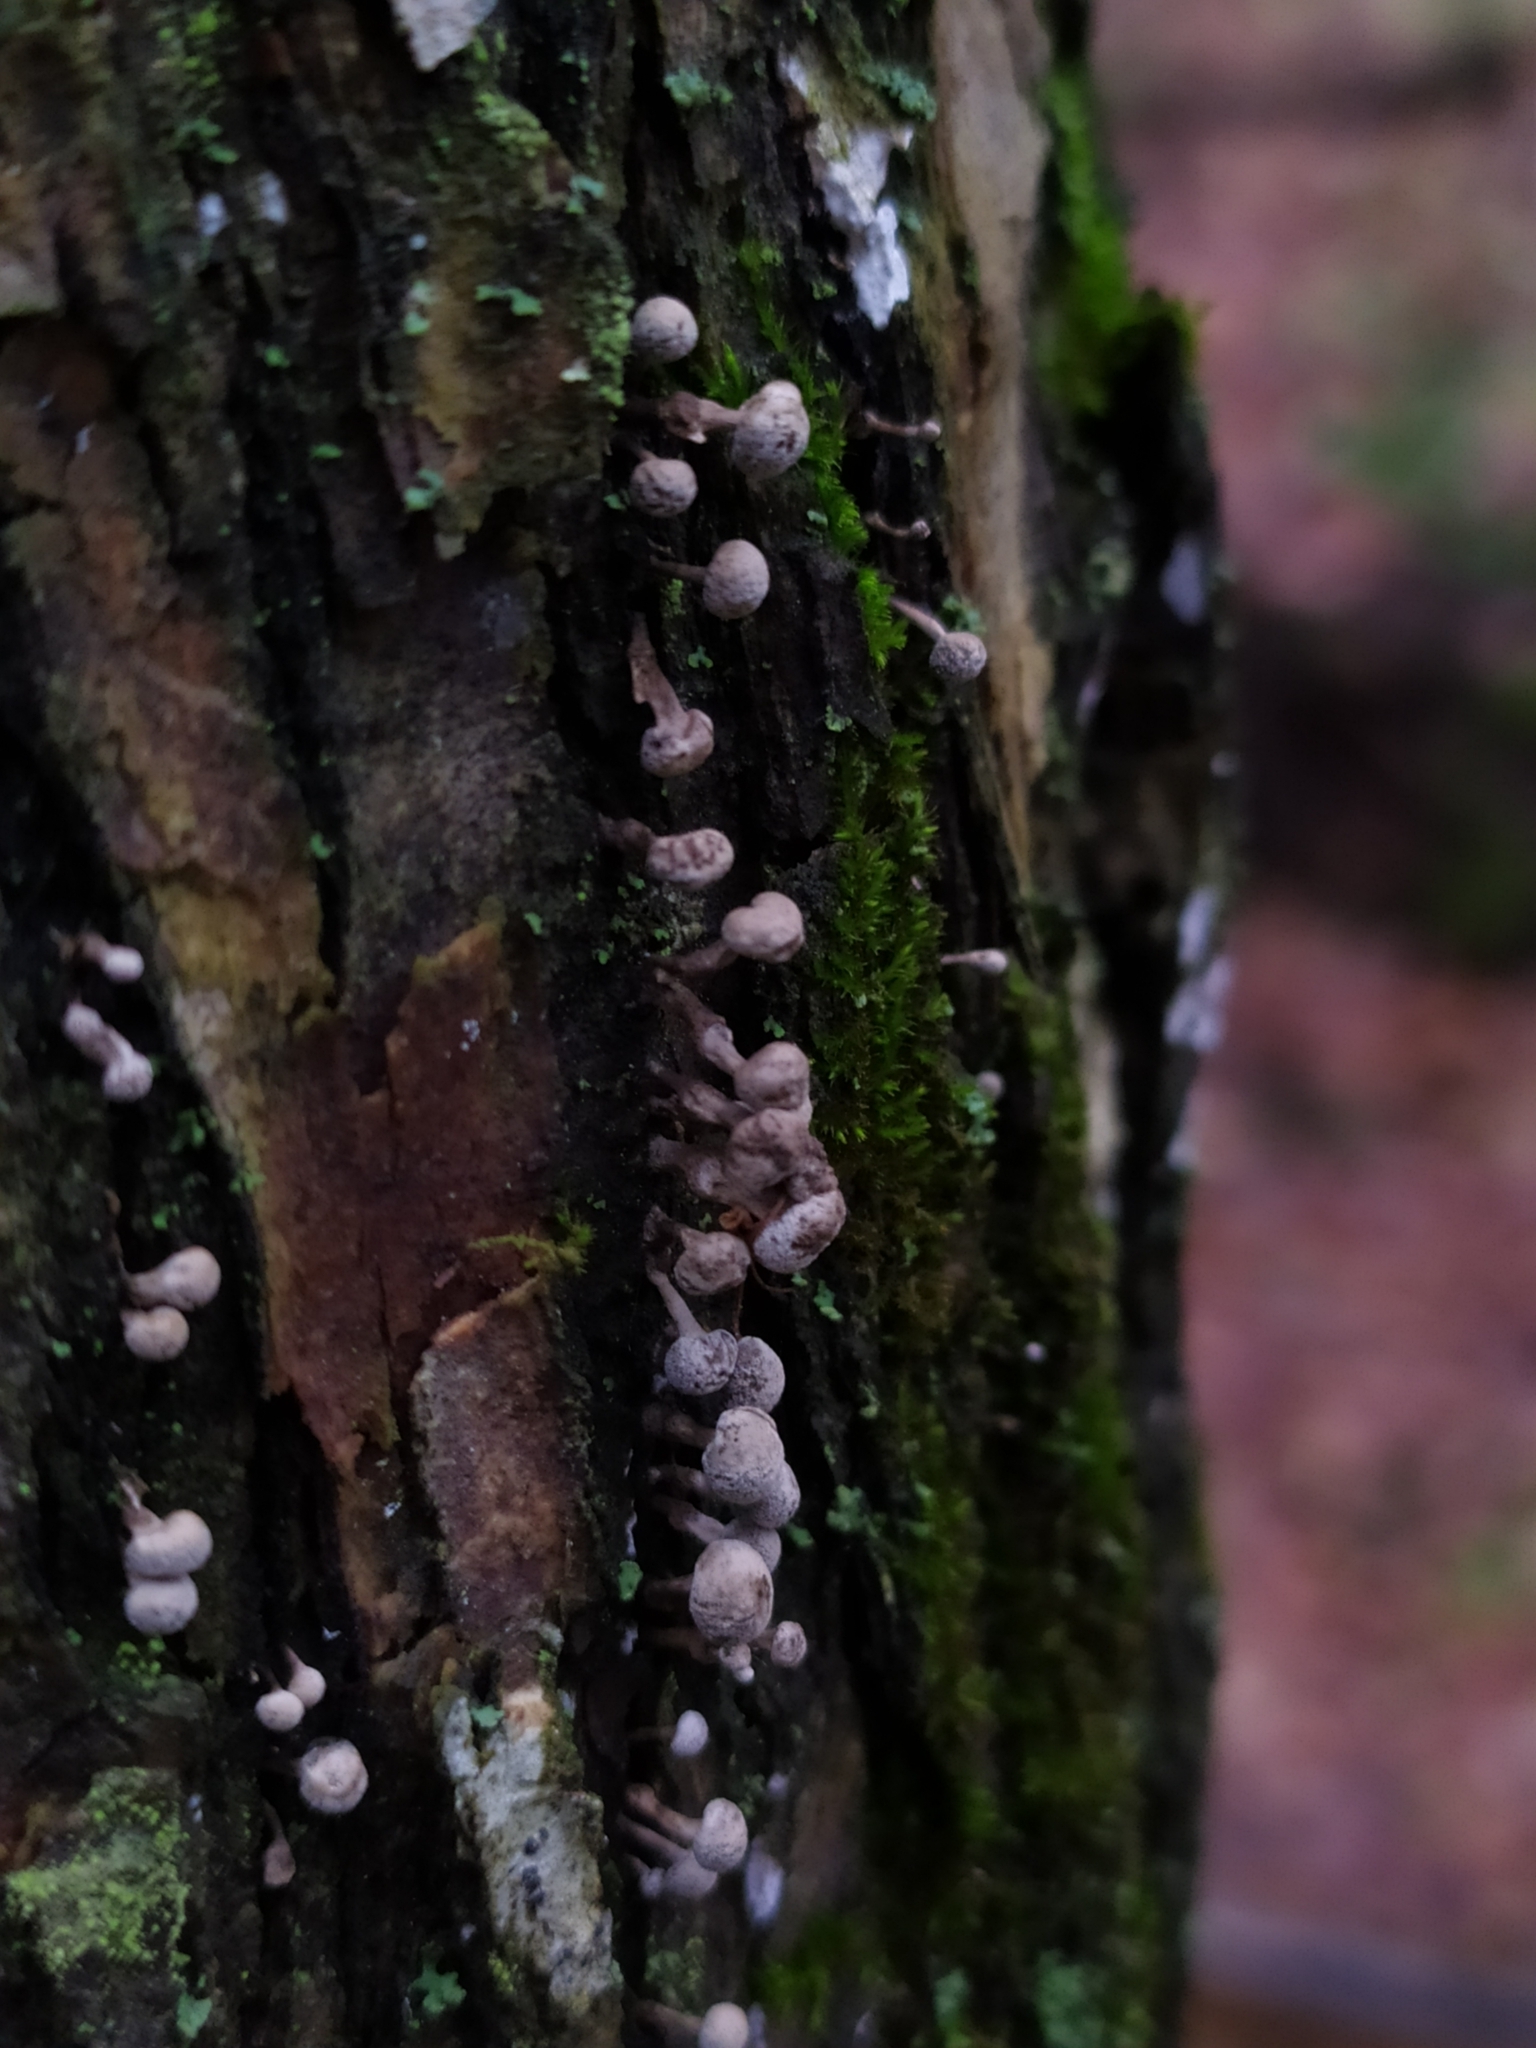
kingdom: Fungi
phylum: Basidiomycota
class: Atractiellomycetes
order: Atractiellales
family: Phleogenaceae
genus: Phleogena
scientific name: Phleogena faginea
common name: Fenugreek stalkball
